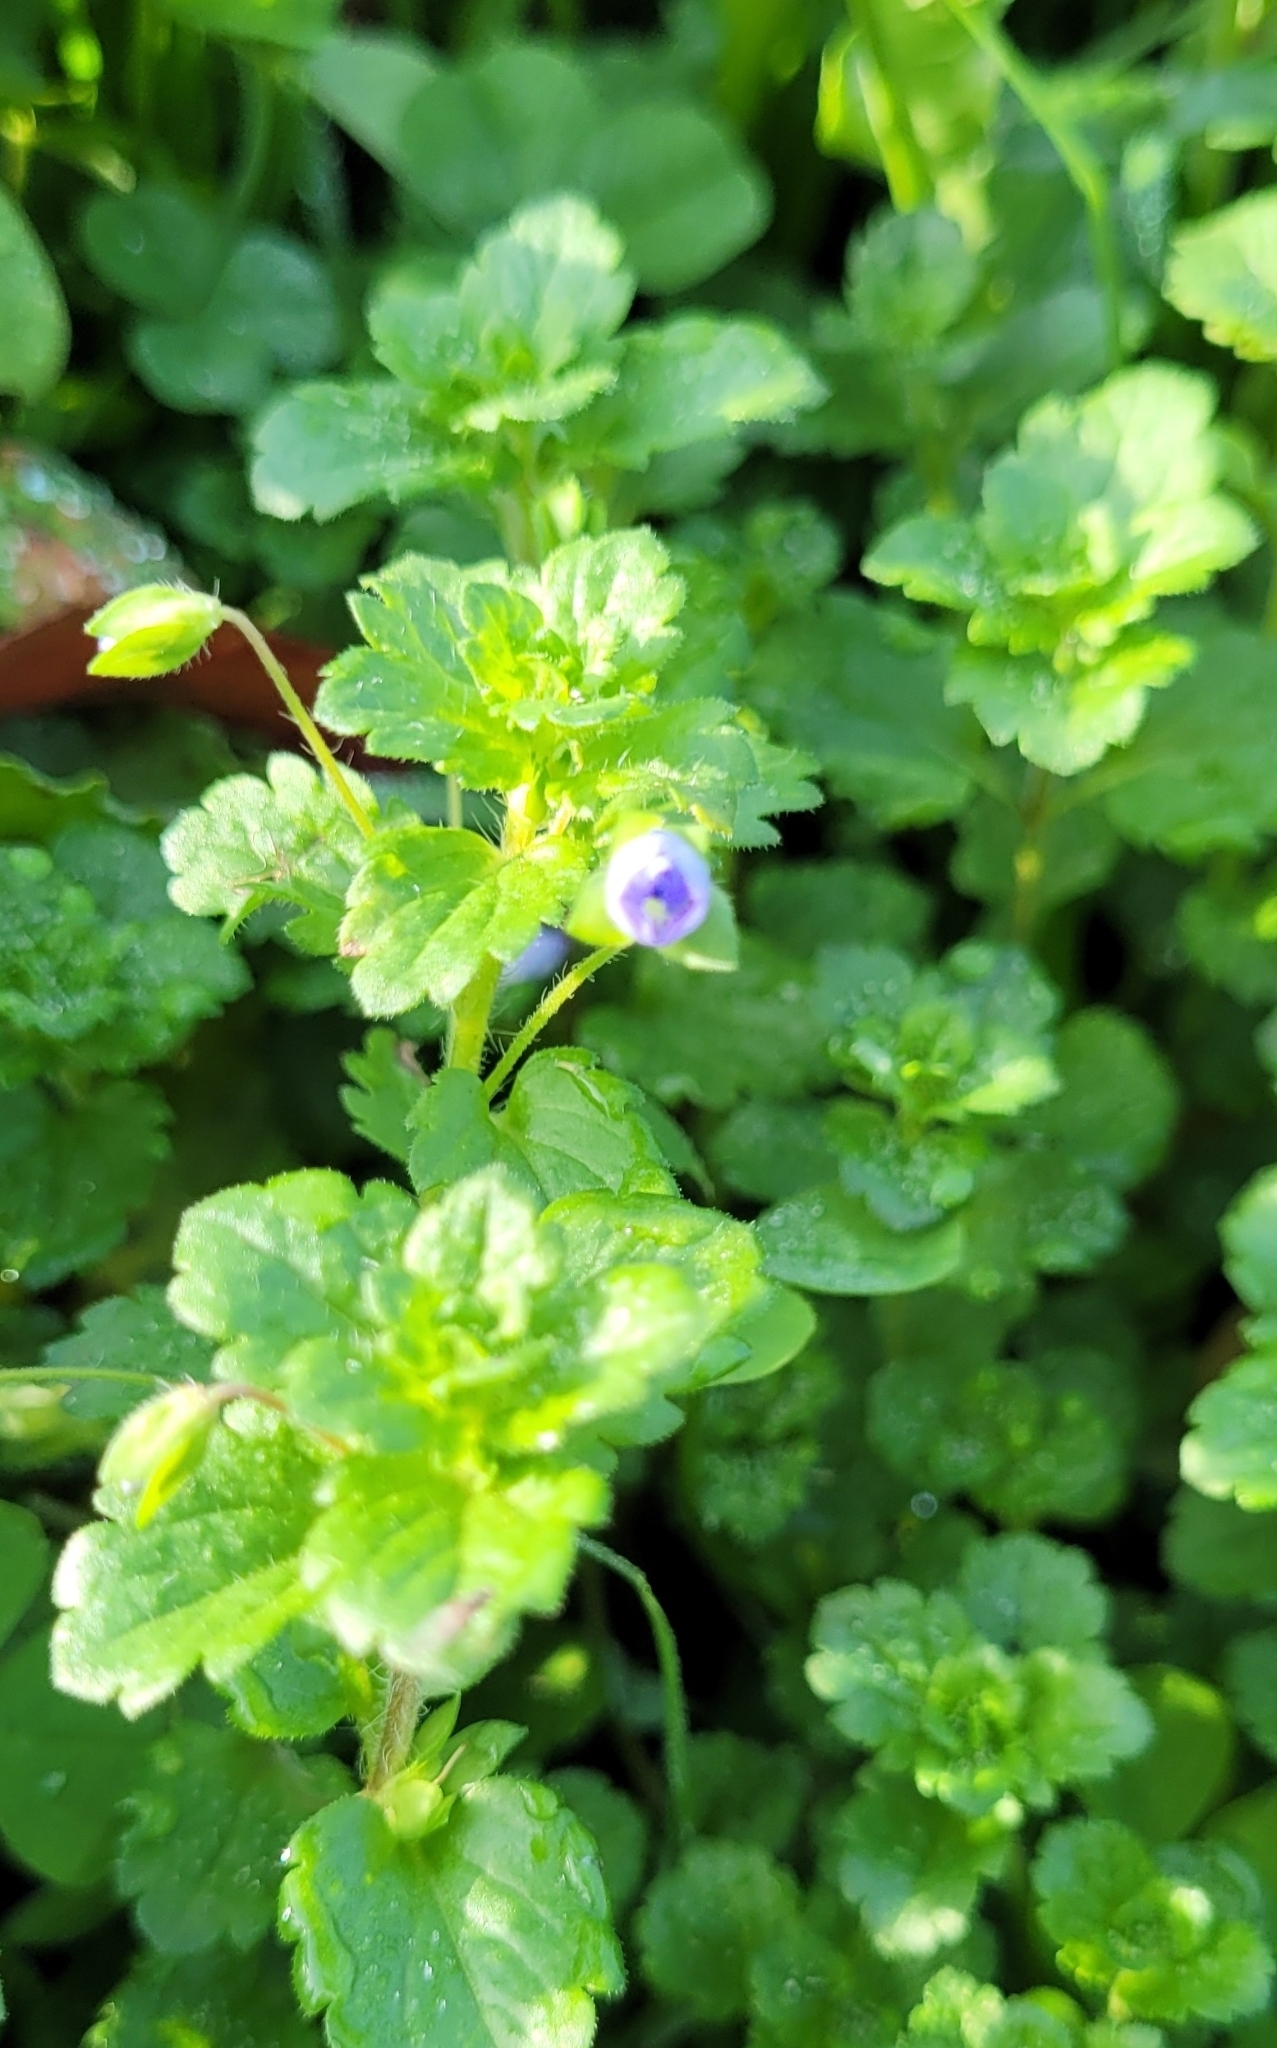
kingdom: Plantae
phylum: Tracheophyta
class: Magnoliopsida
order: Lamiales
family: Plantaginaceae
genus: Veronica
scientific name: Veronica persica
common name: Common field-speedwell
